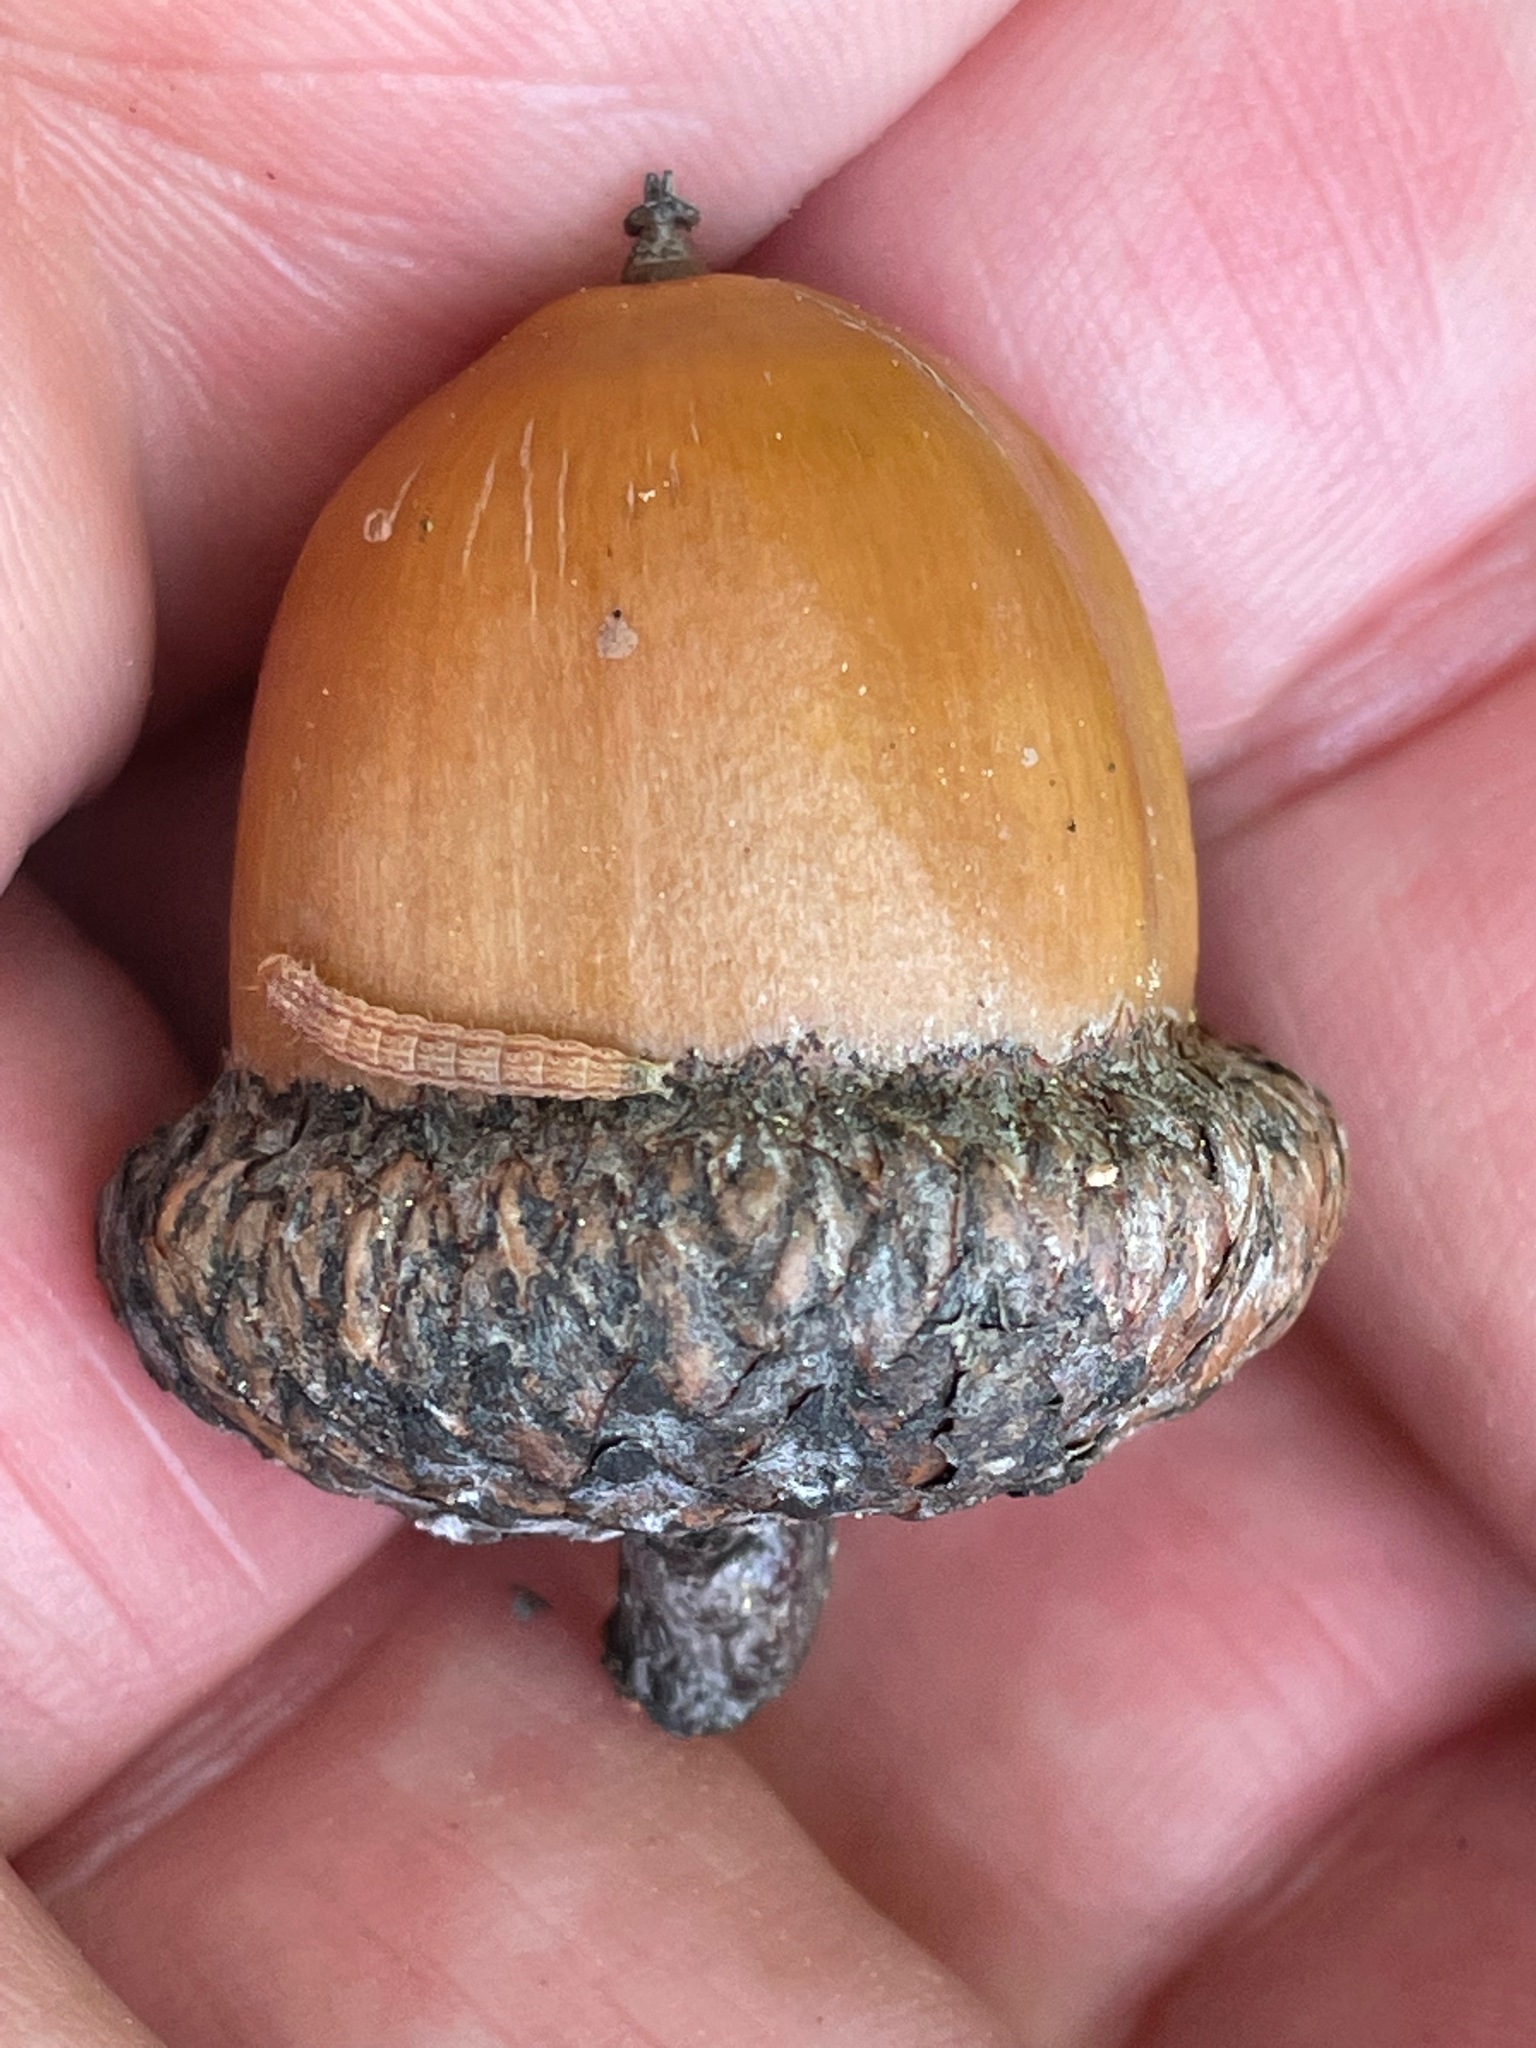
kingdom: Plantae
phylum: Tracheophyta
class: Magnoliopsida
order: Fagales
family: Fagaceae
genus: Quercus
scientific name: Quercus rubra
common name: Red oak
